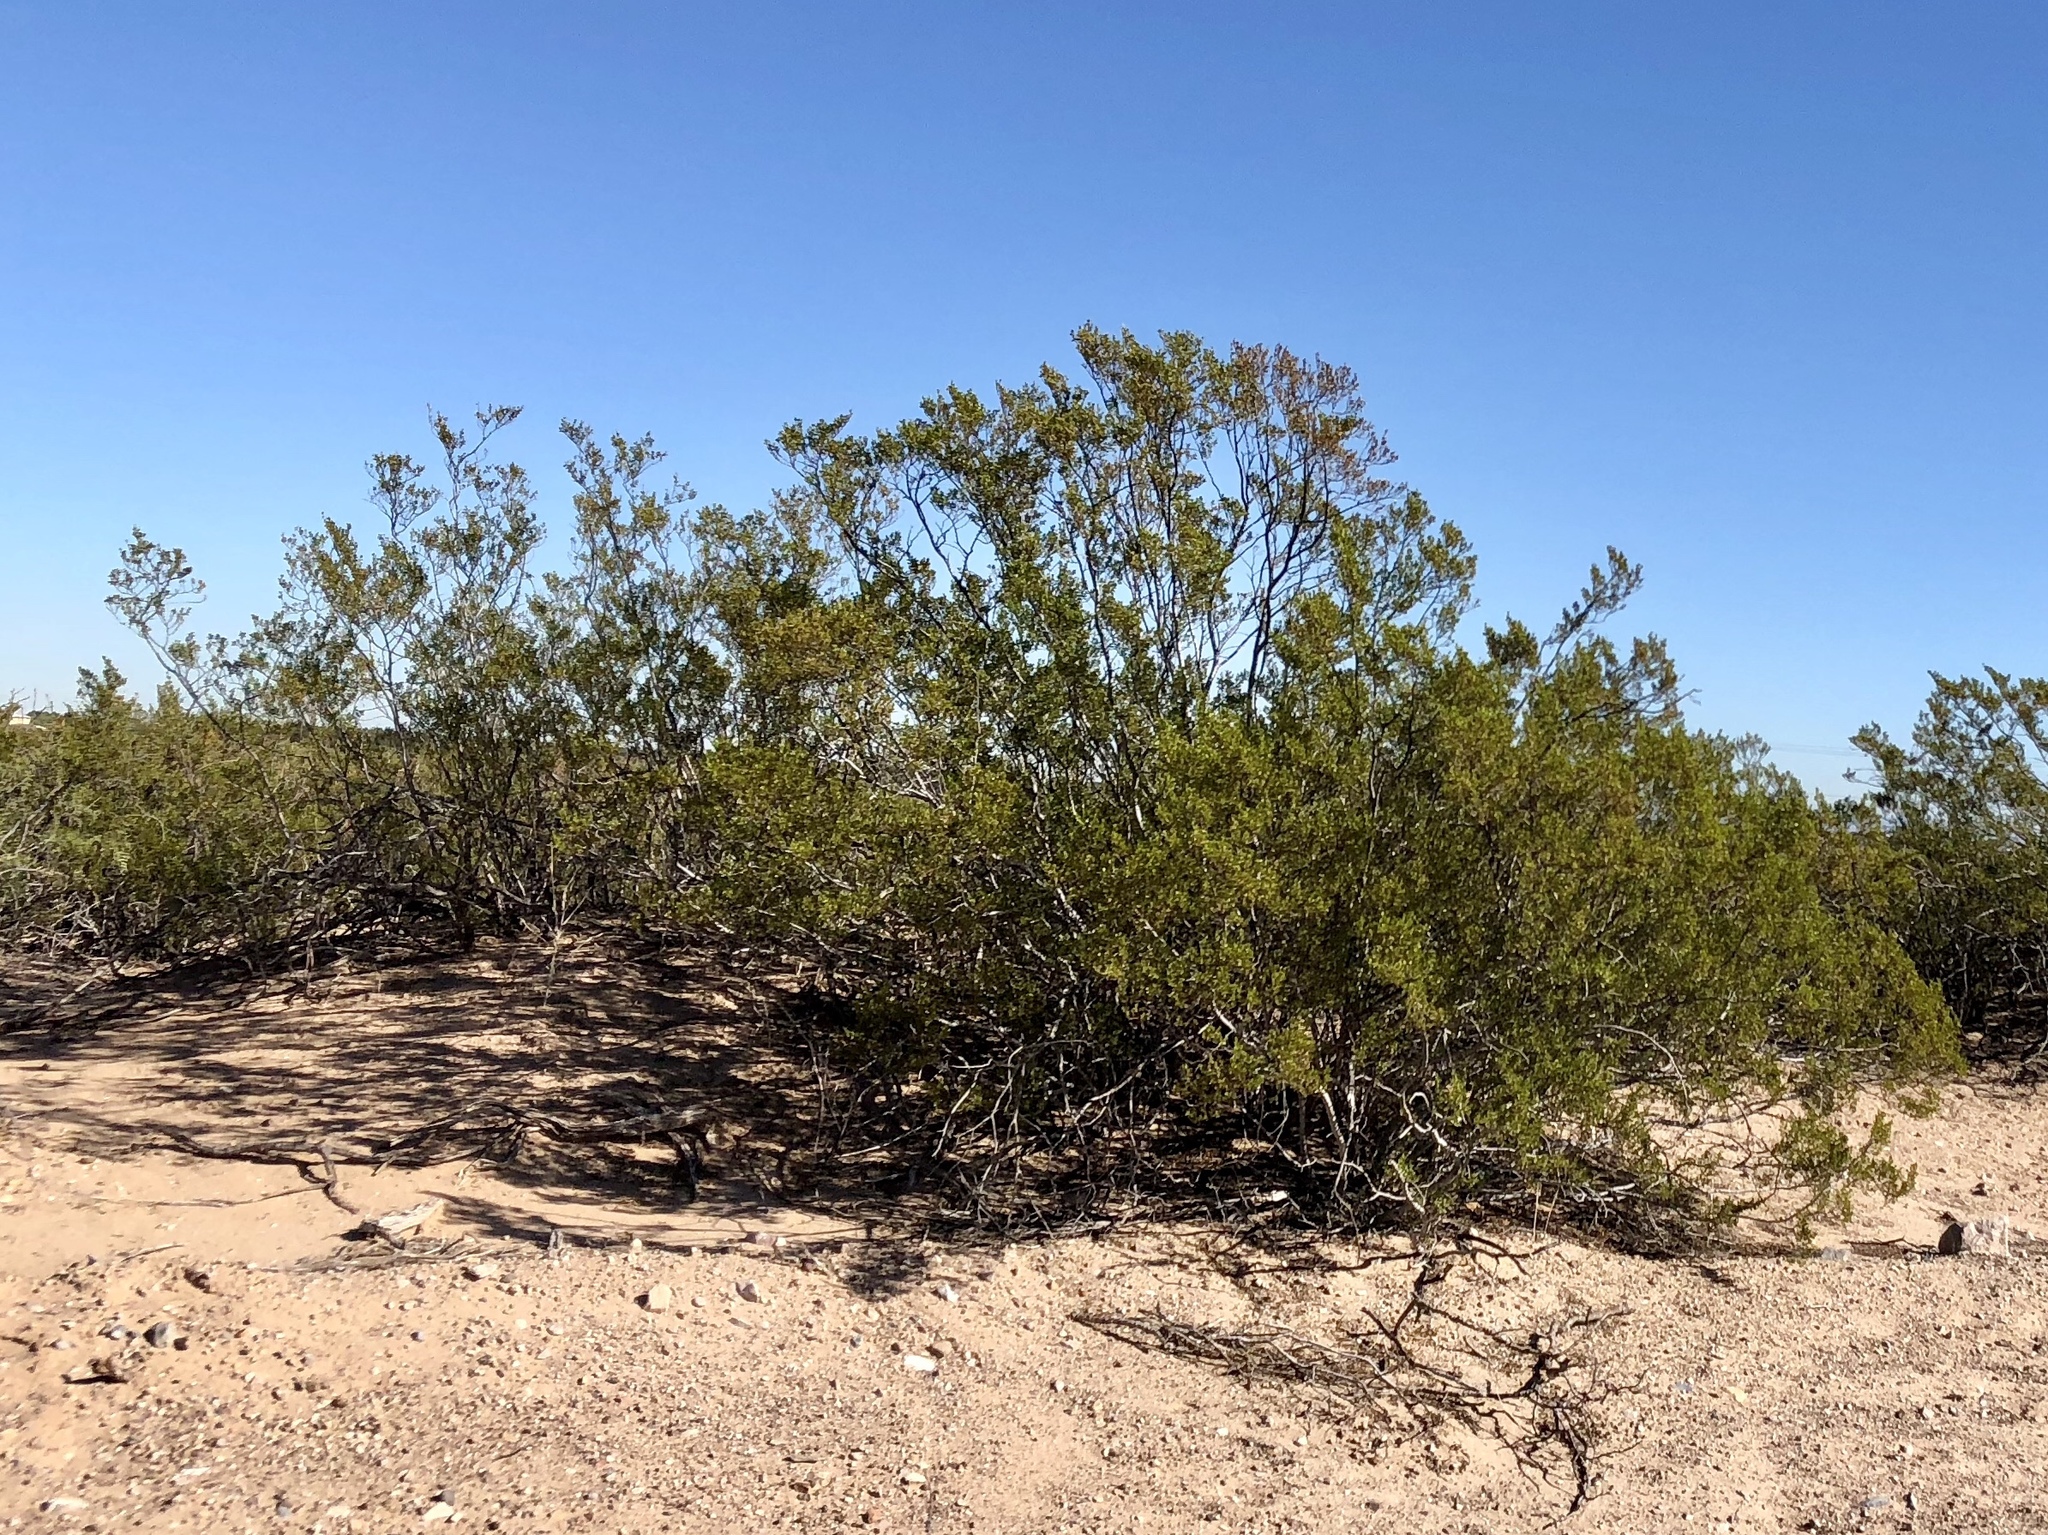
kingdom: Plantae
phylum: Tracheophyta
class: Magnoliopsida
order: Zygophyllales
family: Zygophyllaceae
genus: Larrea
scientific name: Larrea tridentata
